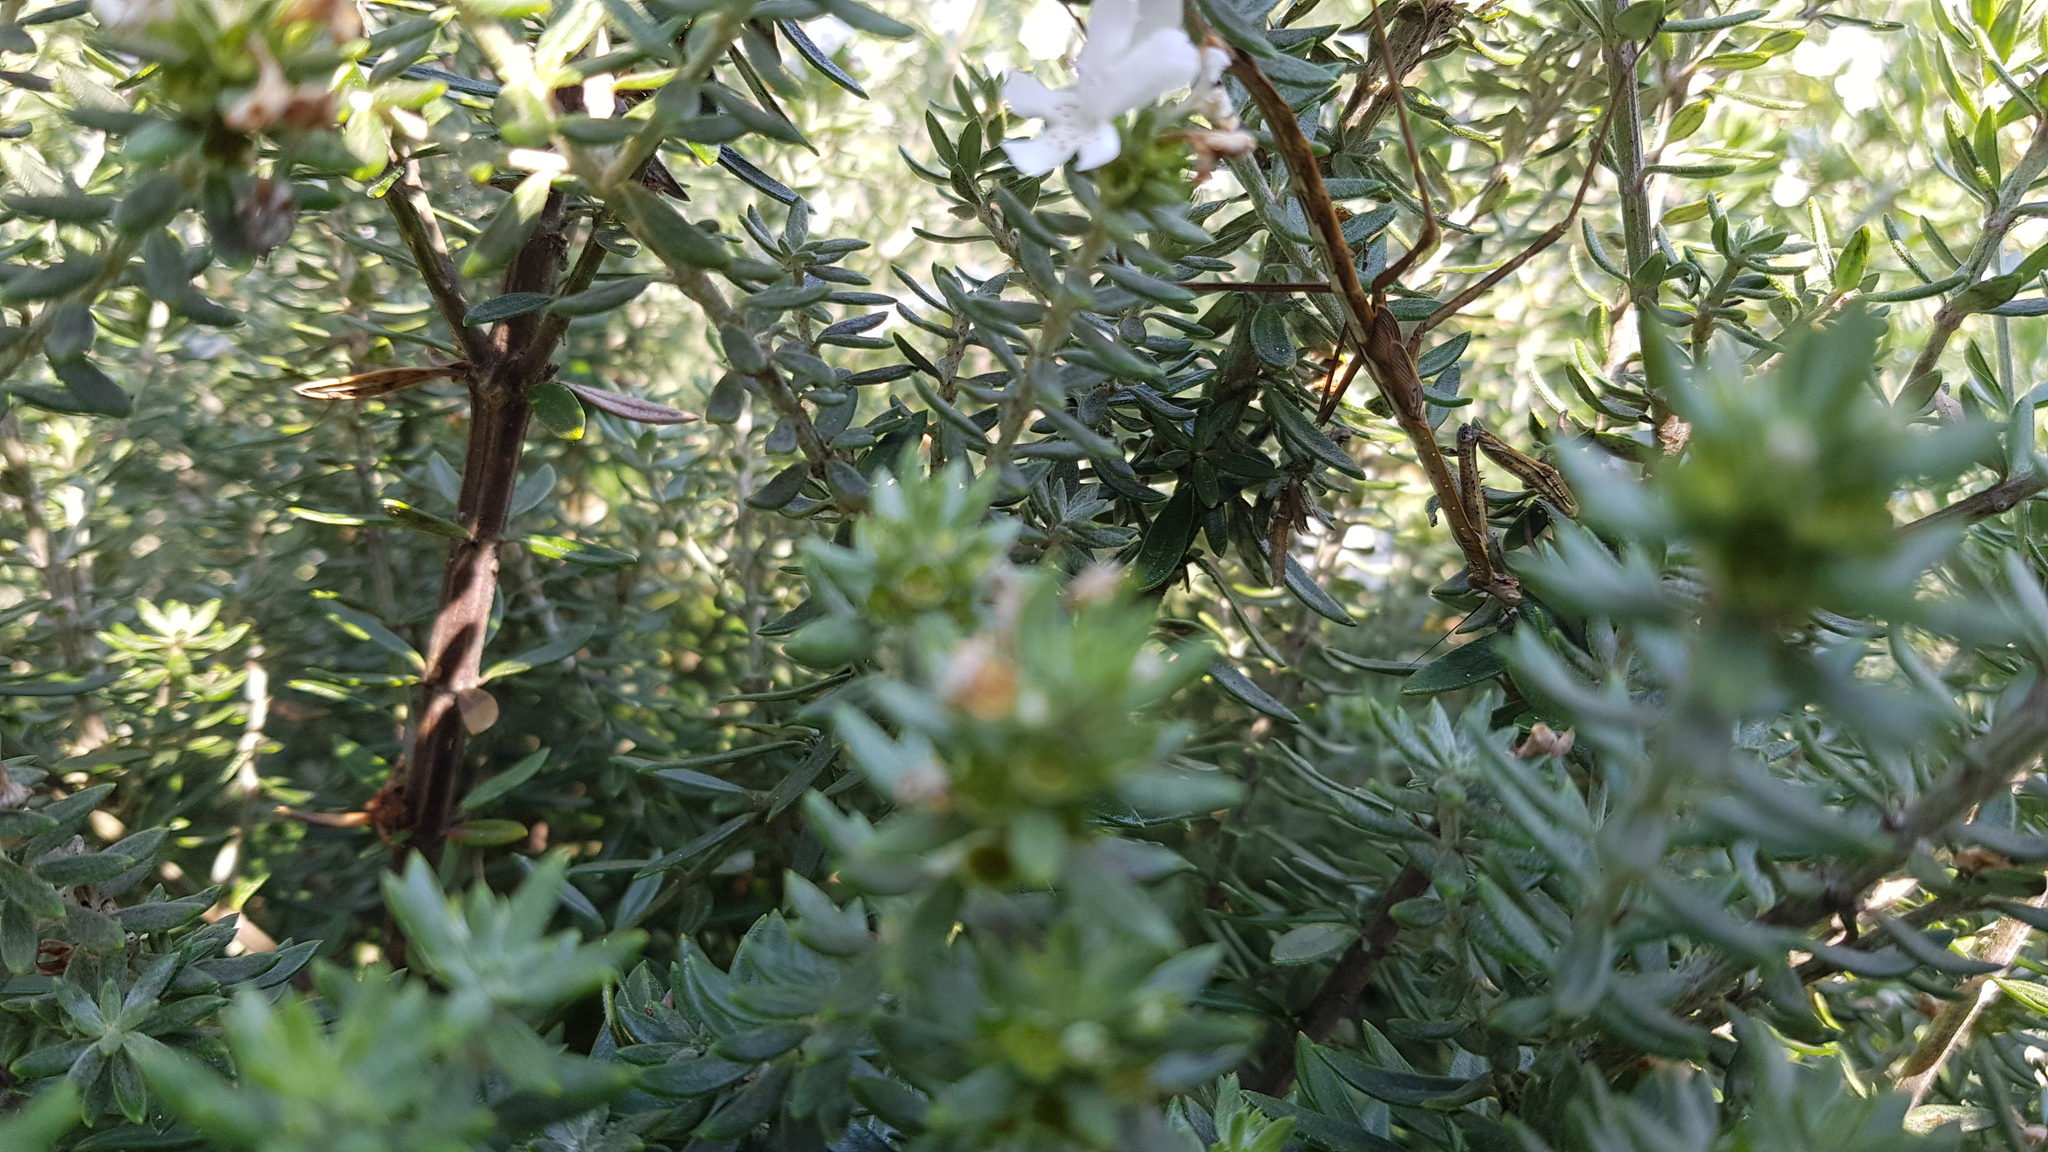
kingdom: Animalia
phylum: Arthropoda
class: Insecta
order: Mantodea
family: Mantidae
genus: Archimantis
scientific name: Archimantis latistyla
